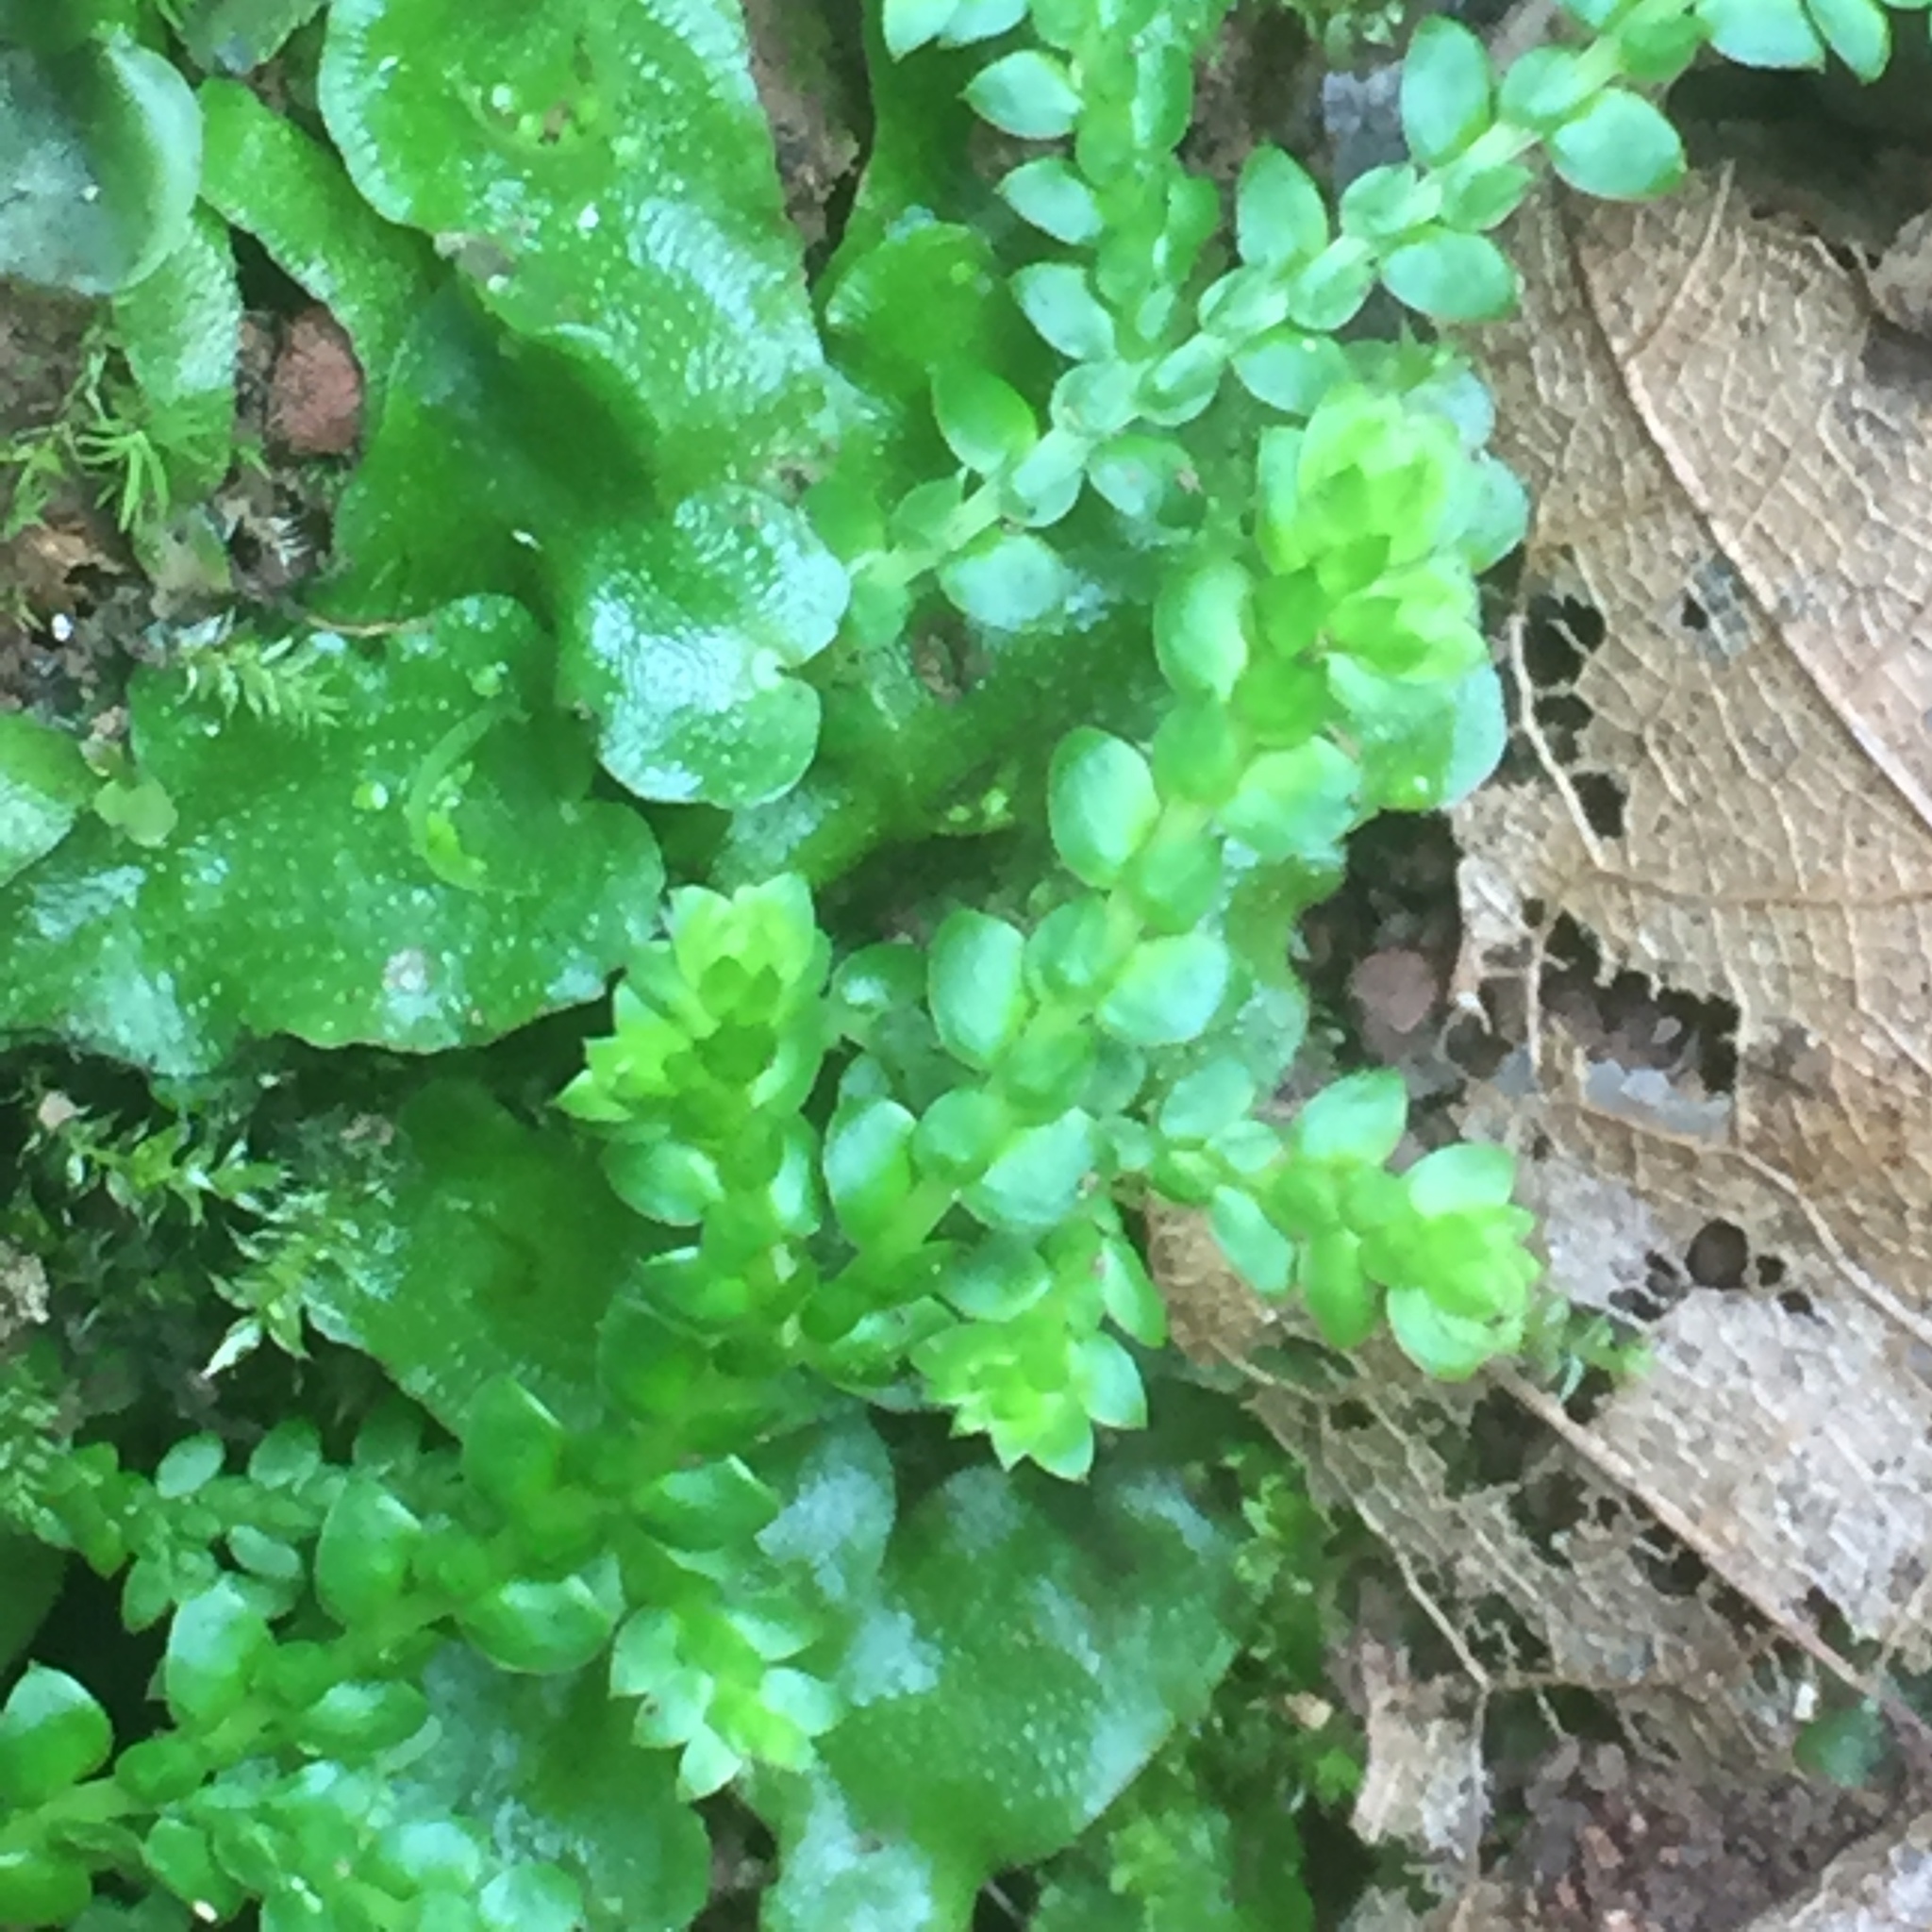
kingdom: Plantae
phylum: Tracheophyta
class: Lycopodiopsida
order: Selaginellales
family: Selaginellaceae
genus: Selaginella
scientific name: Selaginella denticulata
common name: Toothed-leaved clubmoss
